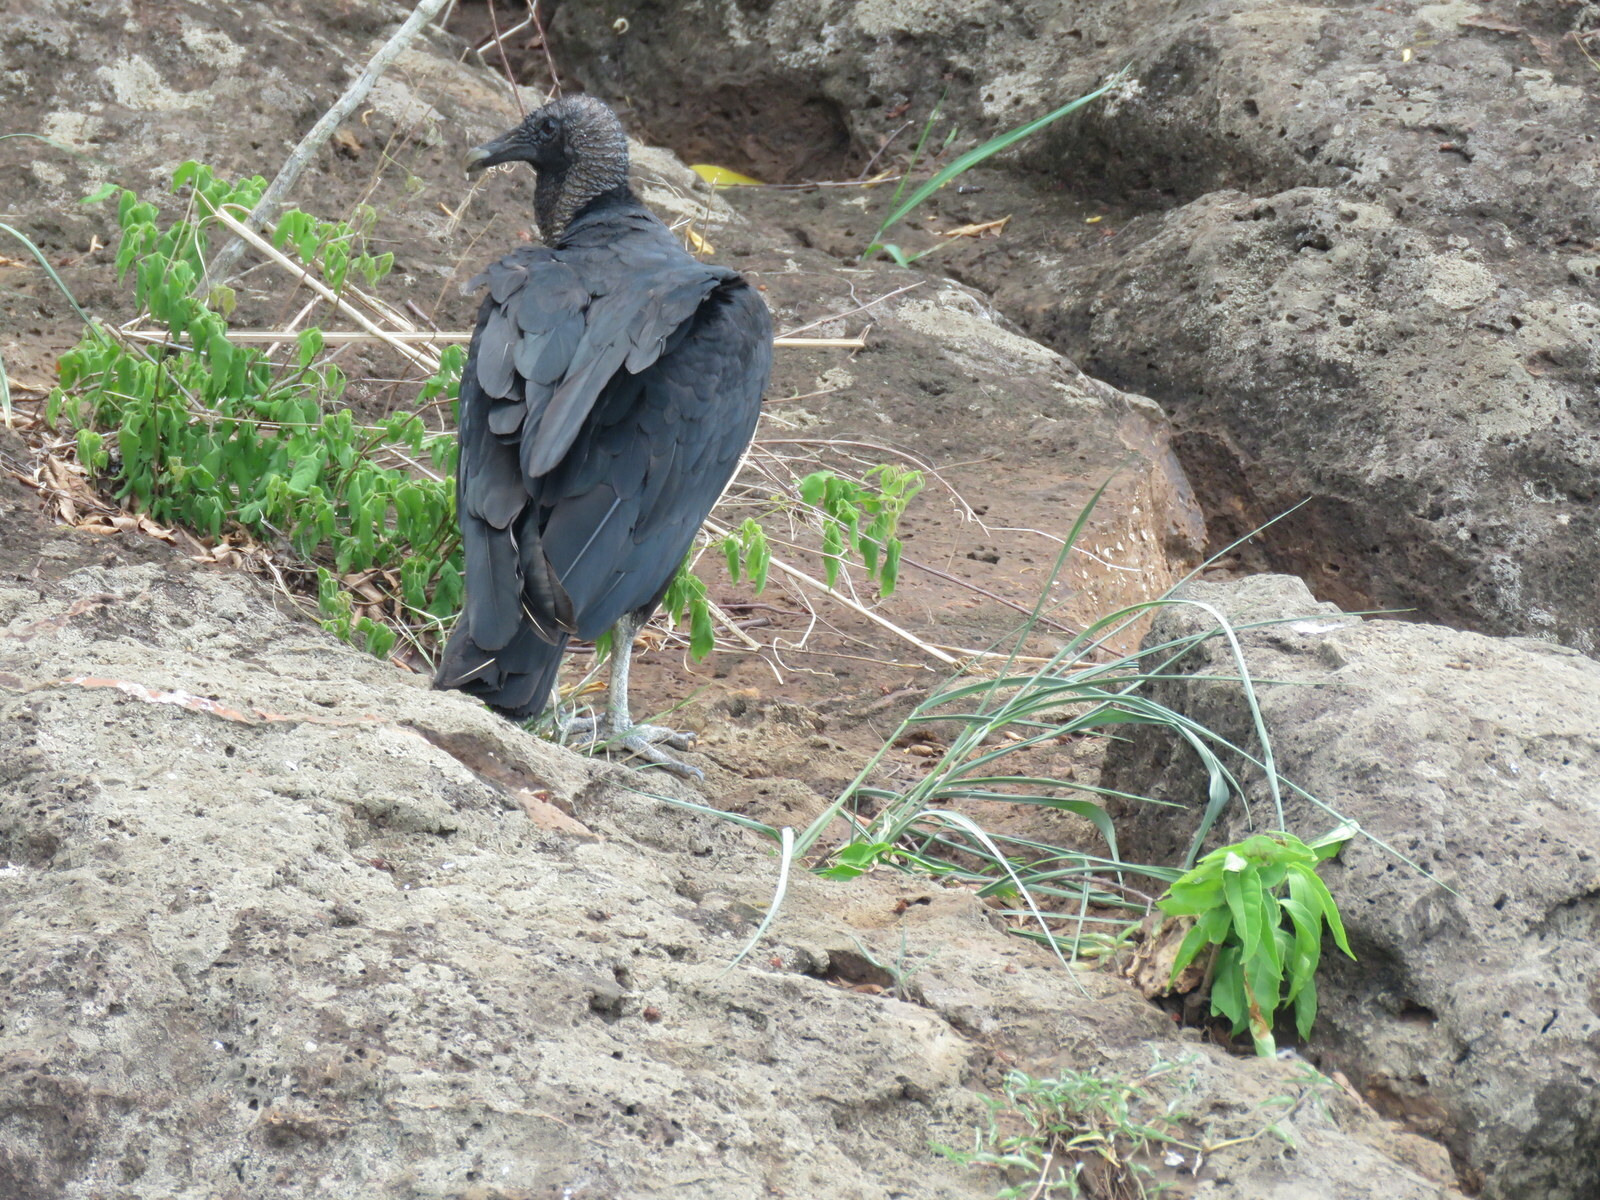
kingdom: Animalia
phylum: Chordata
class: Aves
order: Accipitriformes
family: Cathartidae
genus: Coragyps
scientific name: Coragyps atratus
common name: Black vulture
